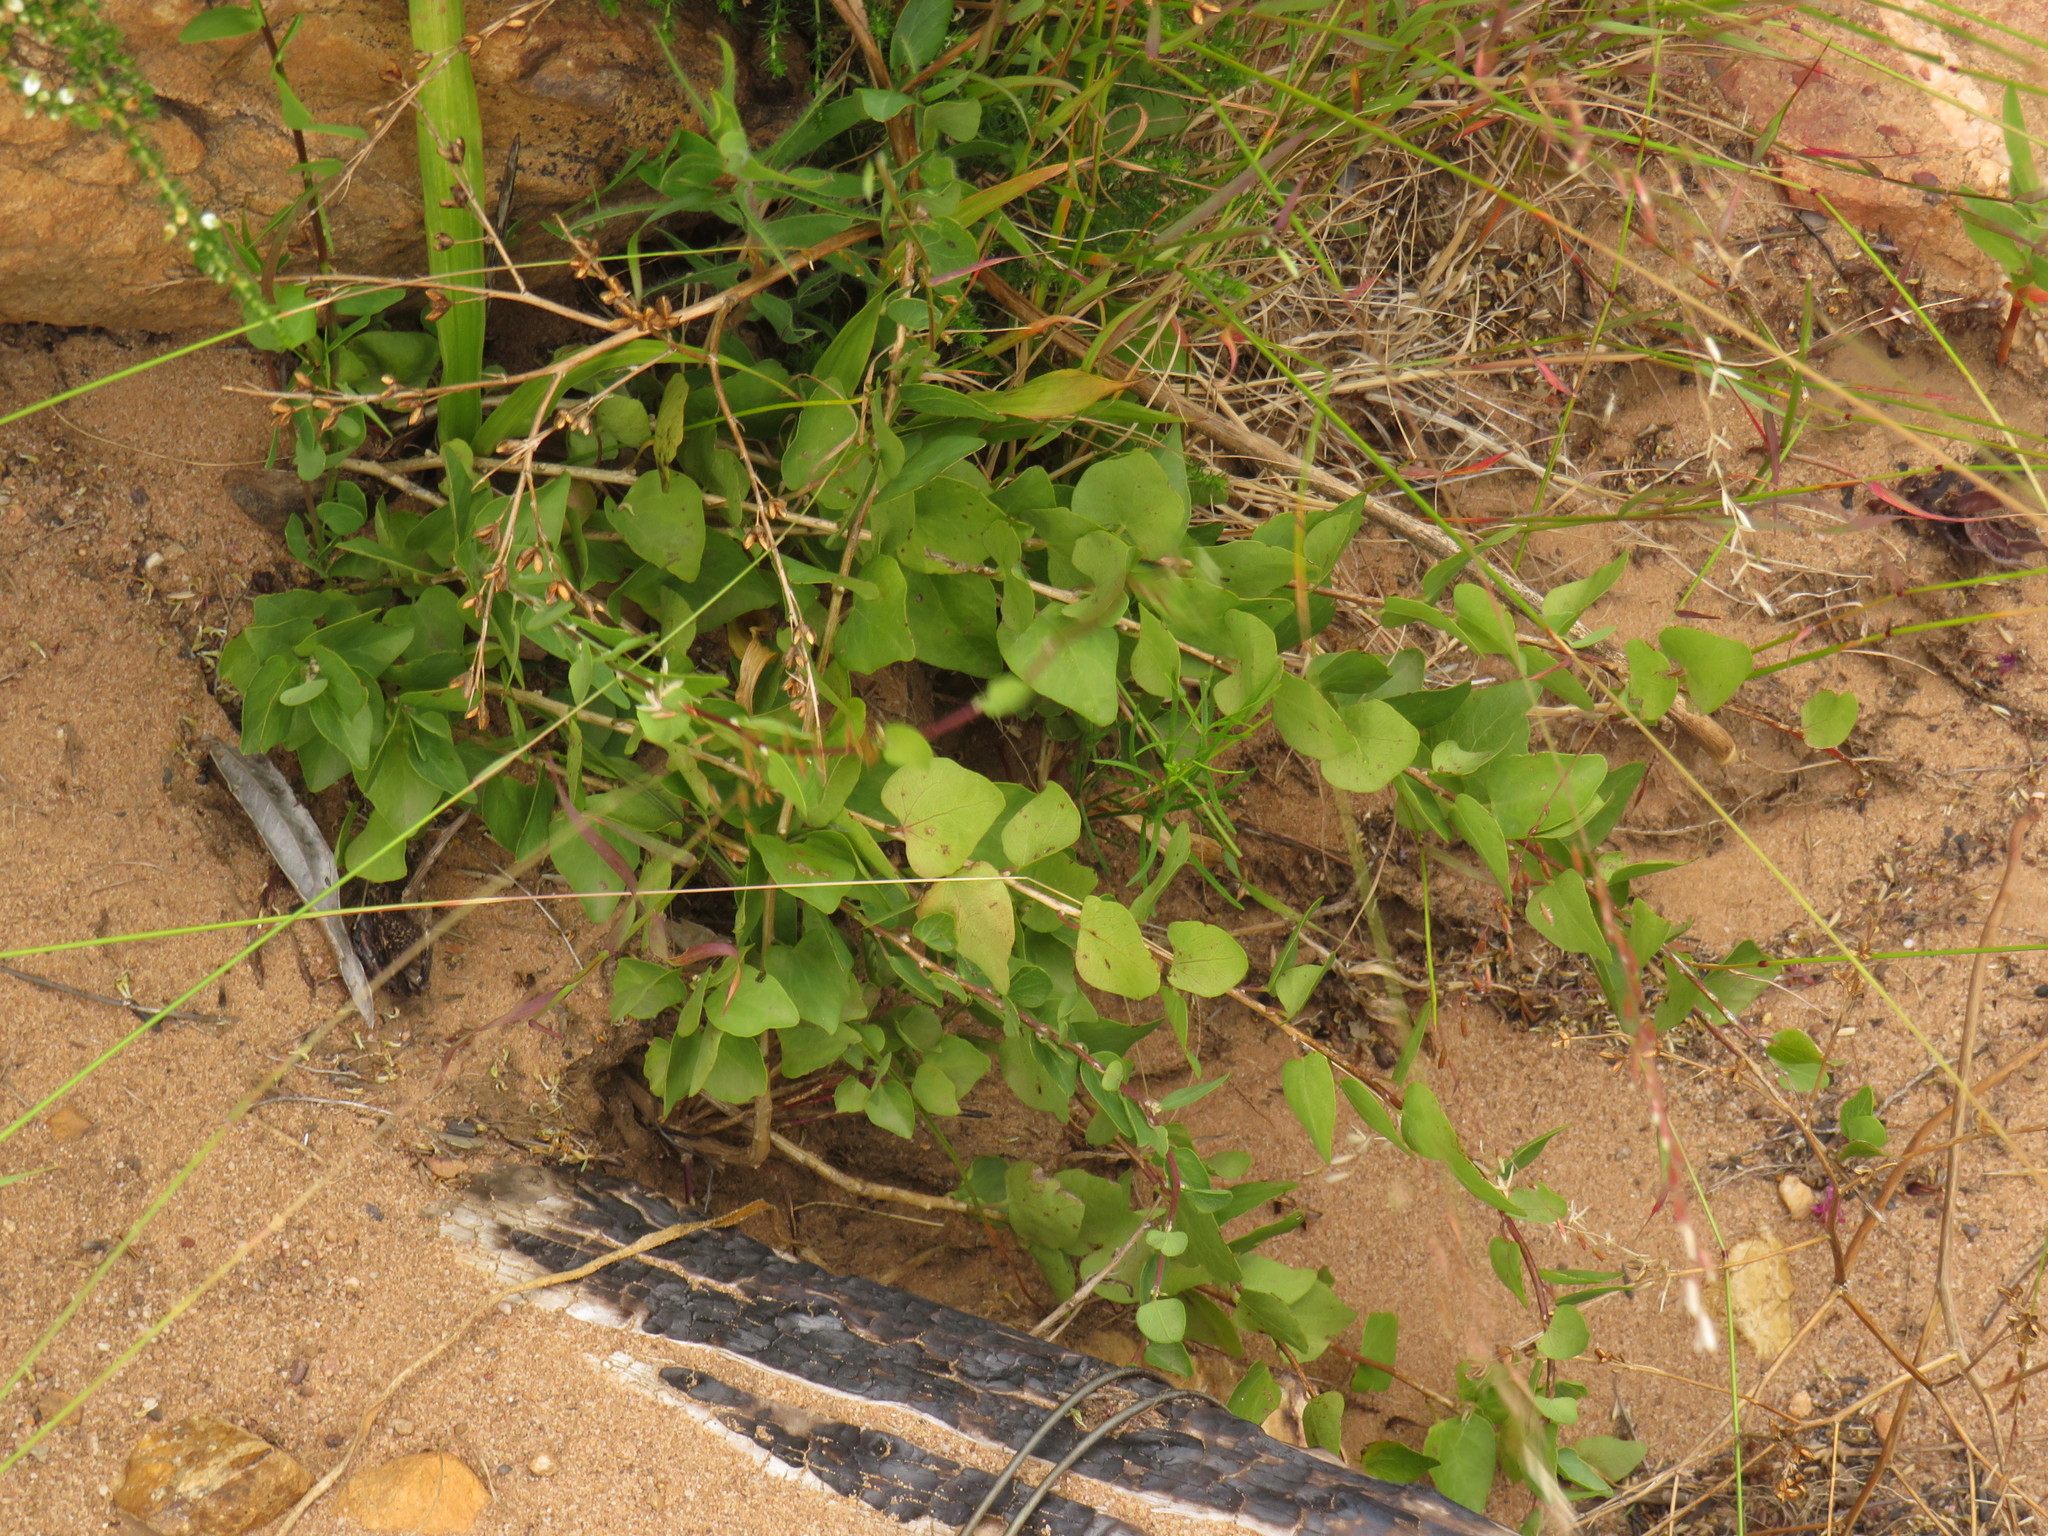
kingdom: Plantae
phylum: Tracheophyta
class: Magnoliopsida
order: Ranunculales
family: Menispermaceae
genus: Cissampelos
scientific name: Cissampelos capensis
